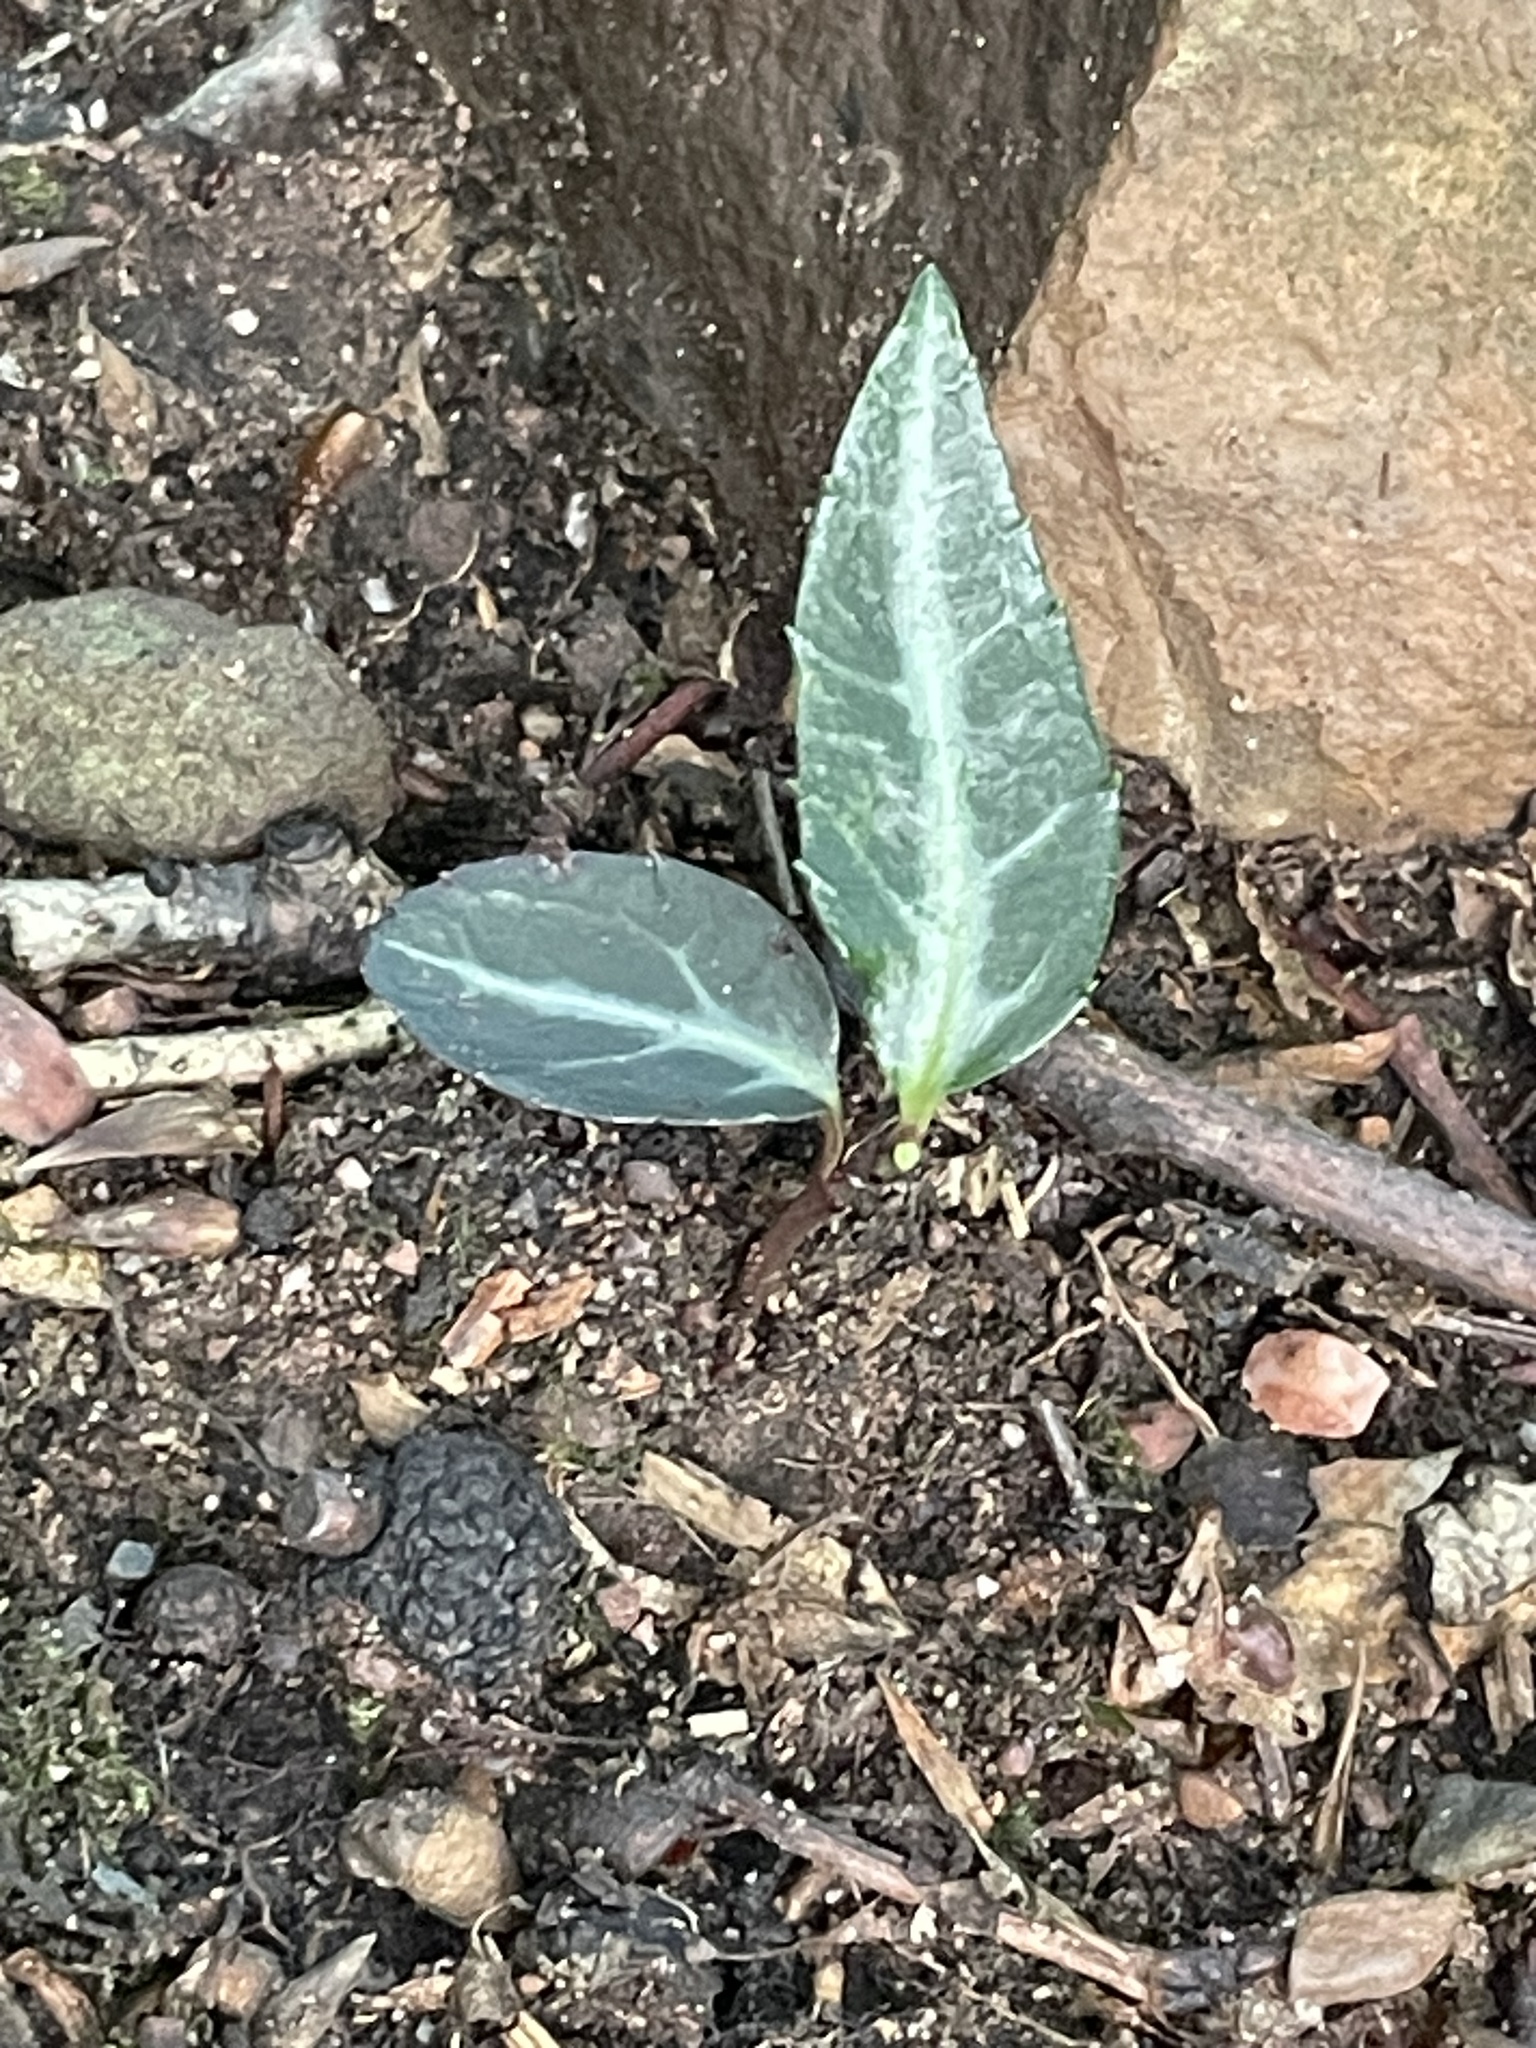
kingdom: Plantae
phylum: Tracheophyta
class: Magnoliopsida
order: Ericales
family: Ericaceae
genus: Chimaphila
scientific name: Chimaphila maculata
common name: Spotted pipsissewa
